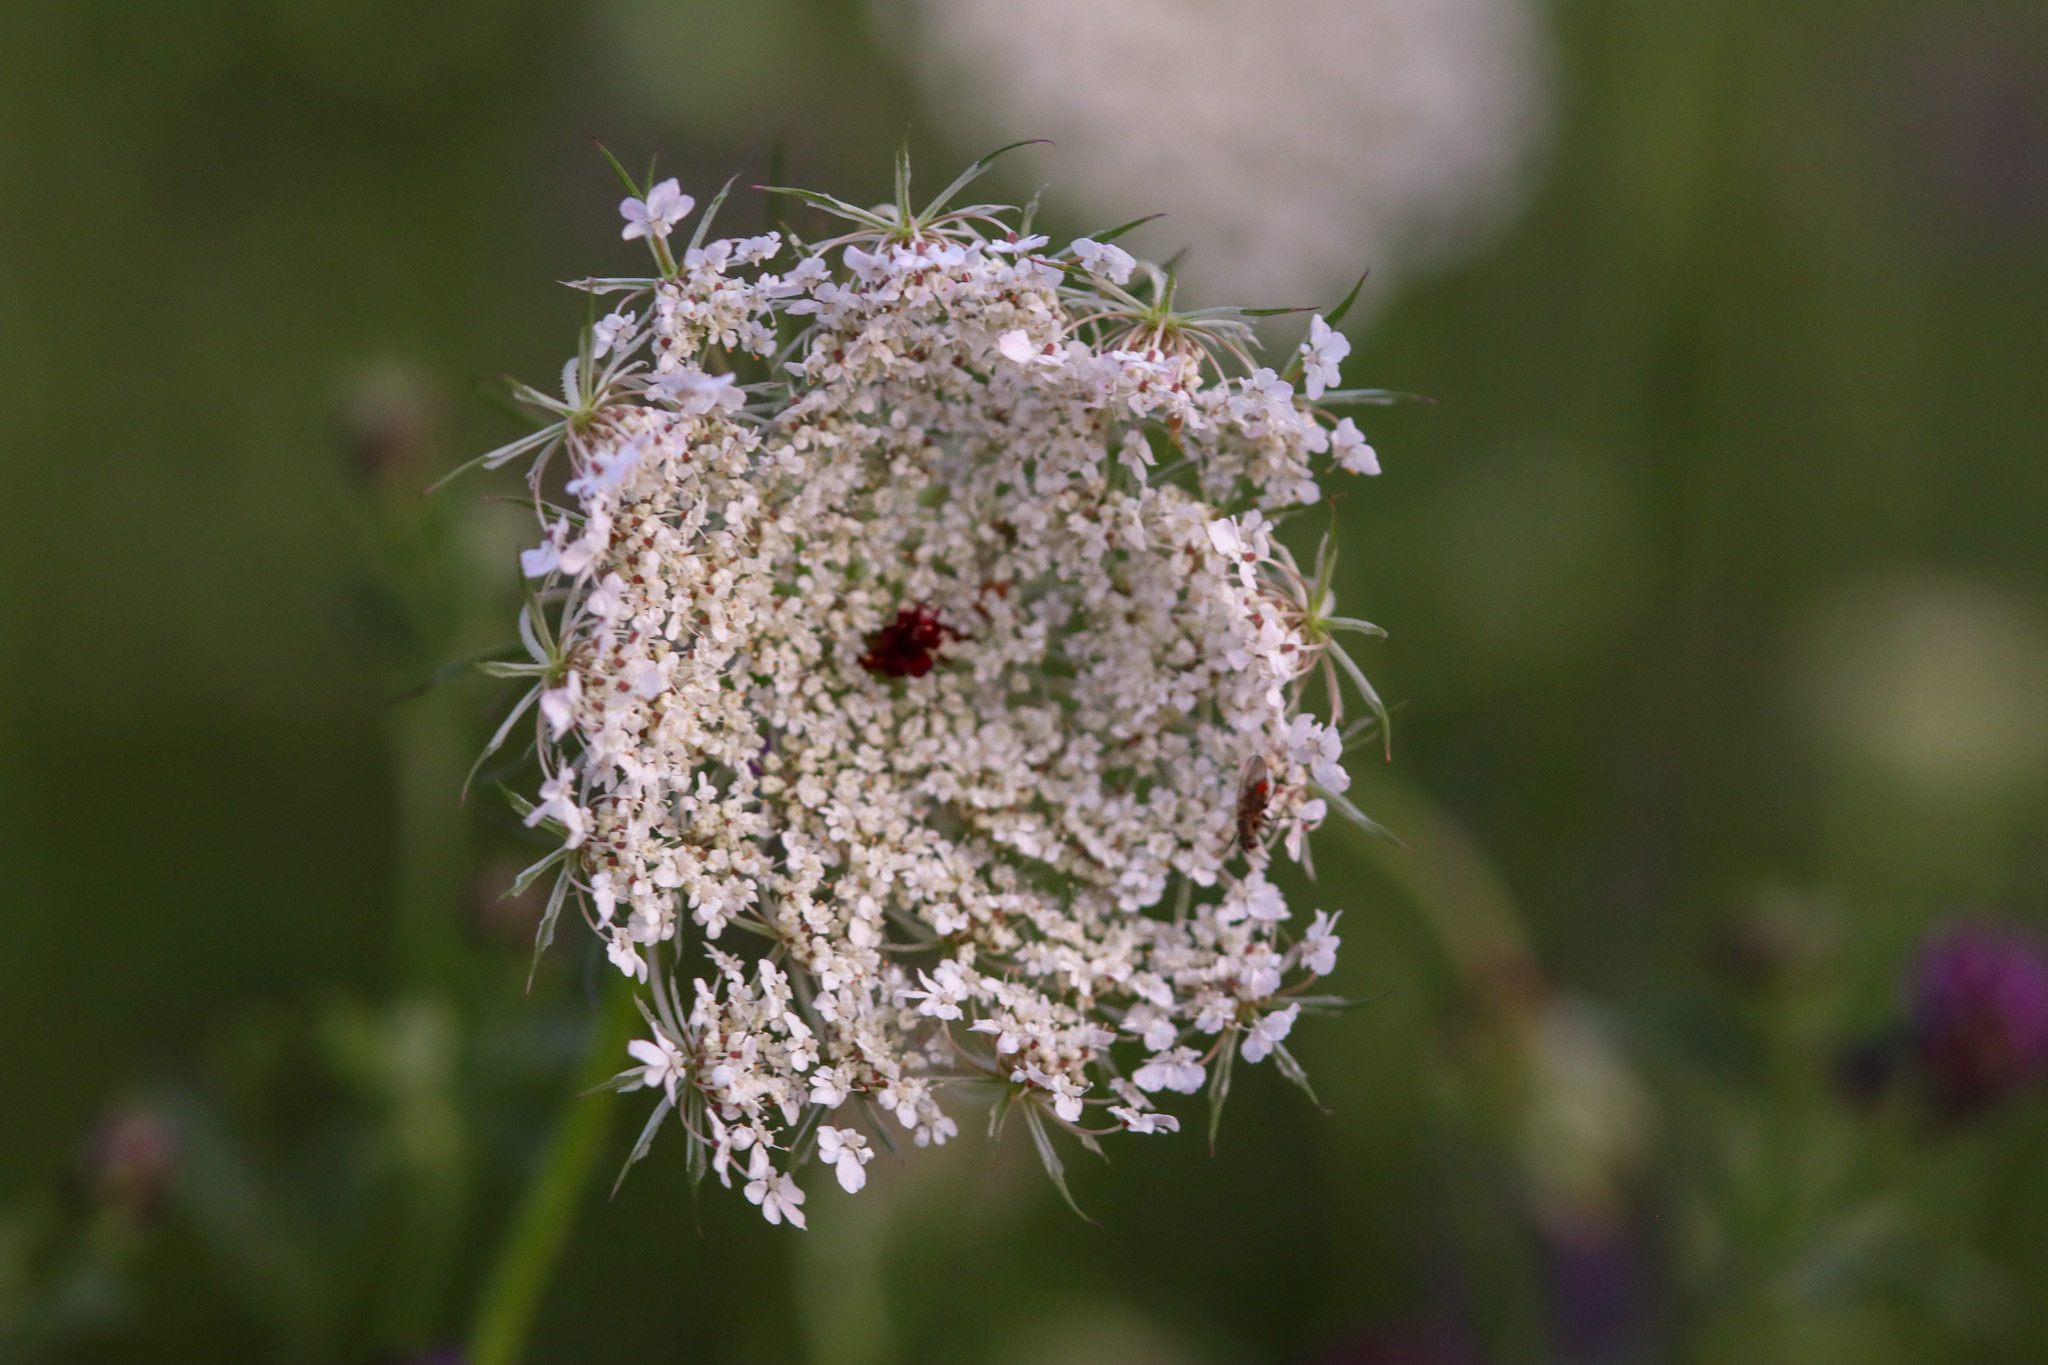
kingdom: Plantae
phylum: Tracheophyta
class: Magnoliopsida
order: Apiales
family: Apiaceae
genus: Daucus
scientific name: Daucus carota
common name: Wild carrot
